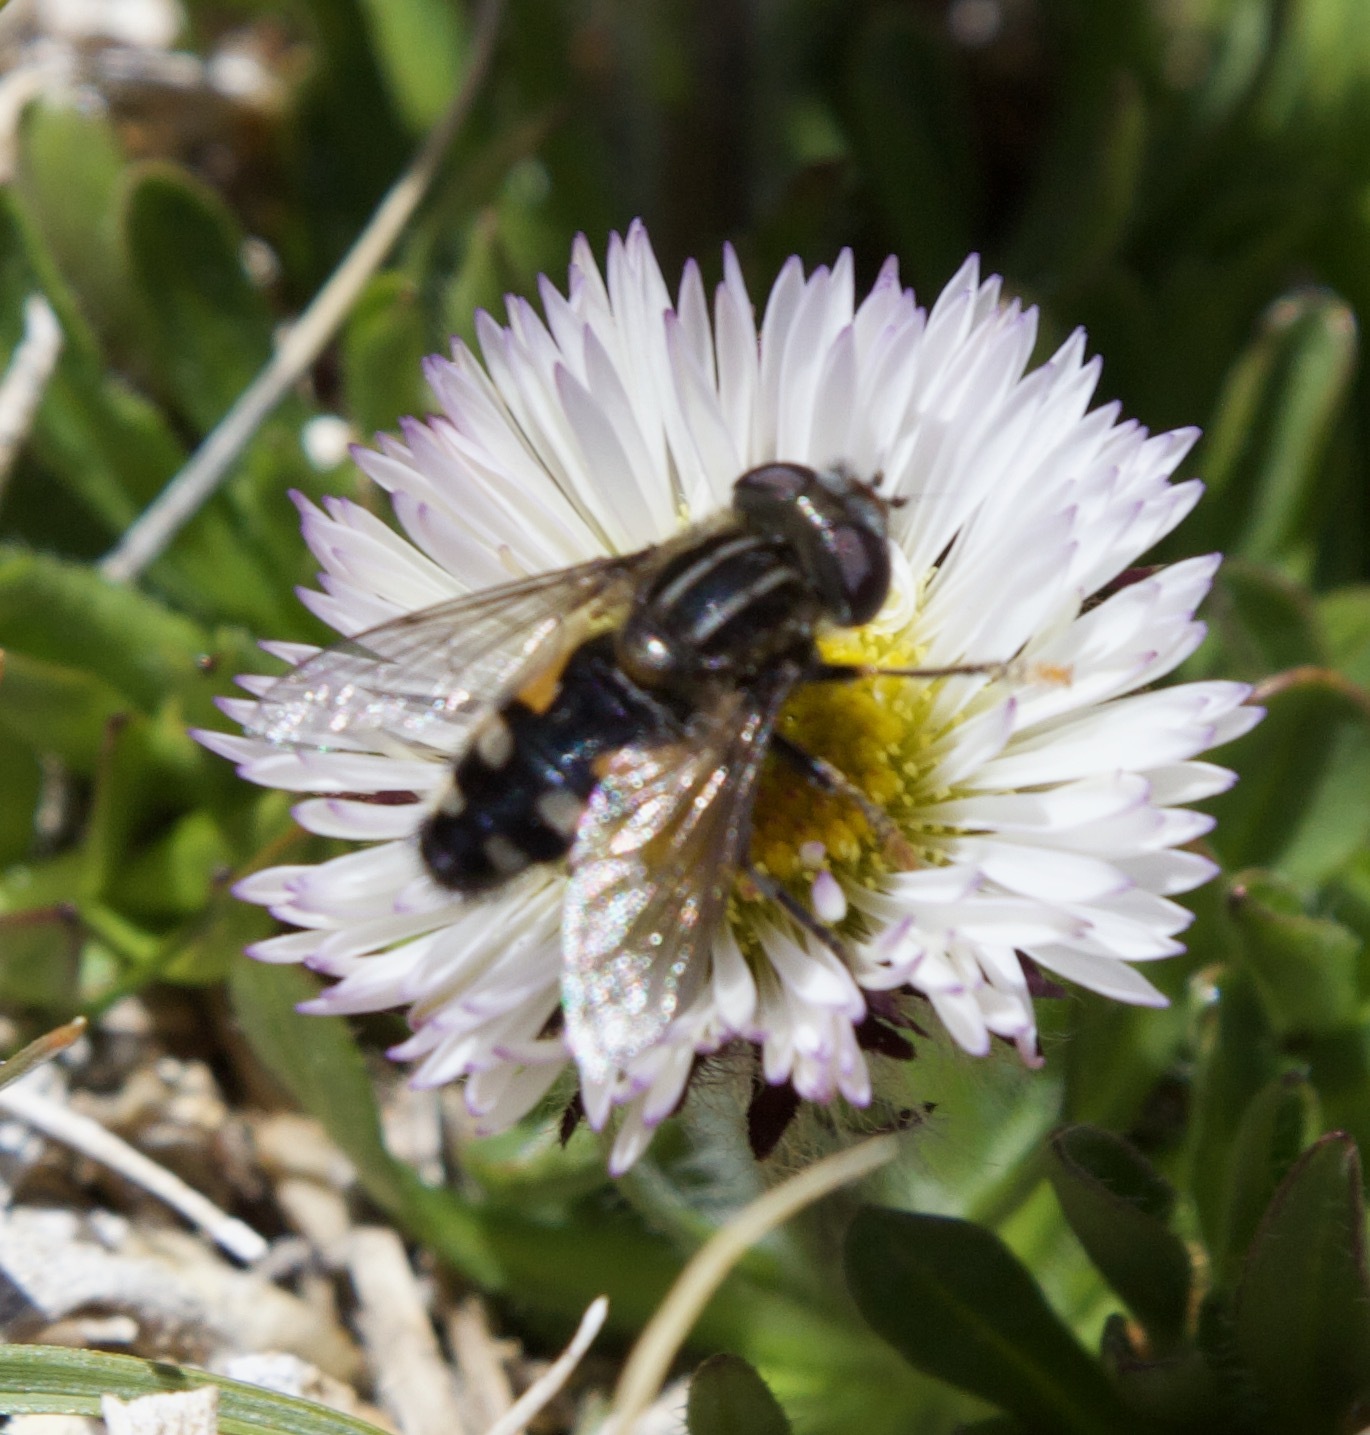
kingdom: Animalia
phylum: Arthropoda
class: Insecta
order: Diptera
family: Syrphidae
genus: Dolichogyna
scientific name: Dolichogyna nigripes
